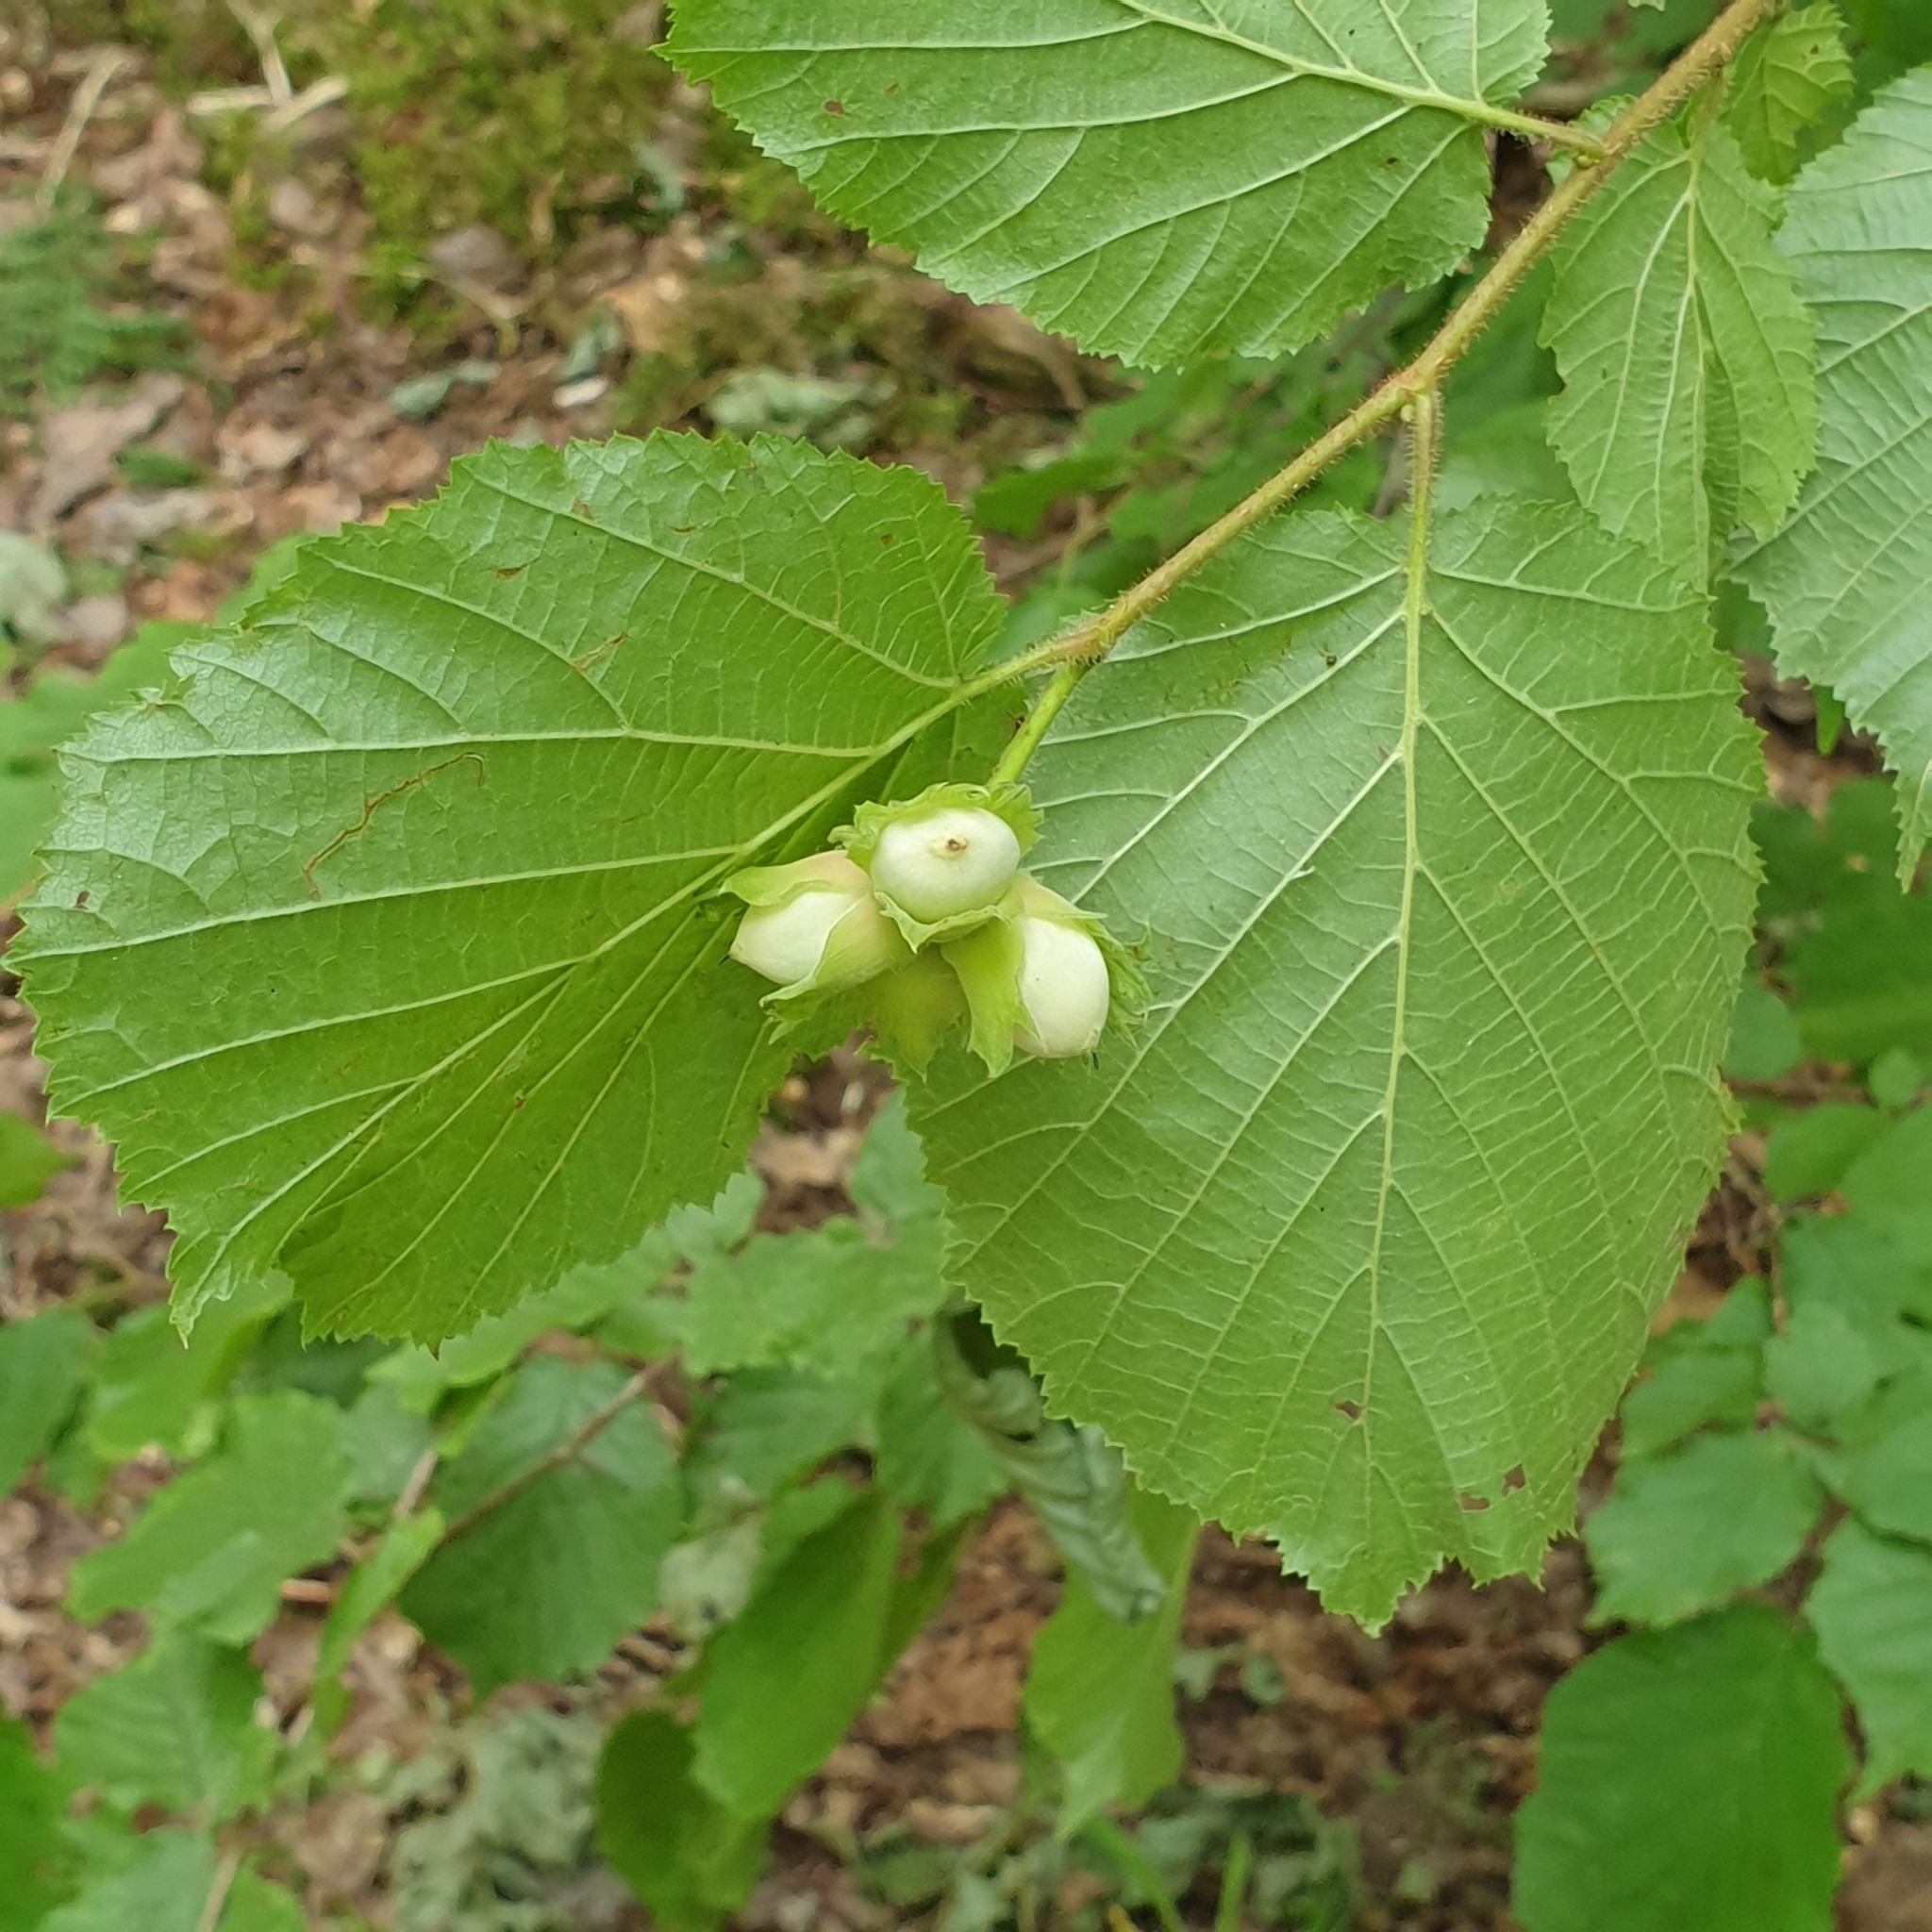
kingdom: Plantae
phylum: Tracheophyta
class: Magnoliopsida
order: Fagales
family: Betulaceae
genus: Corylus
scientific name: Corylus avellana
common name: European hazel
